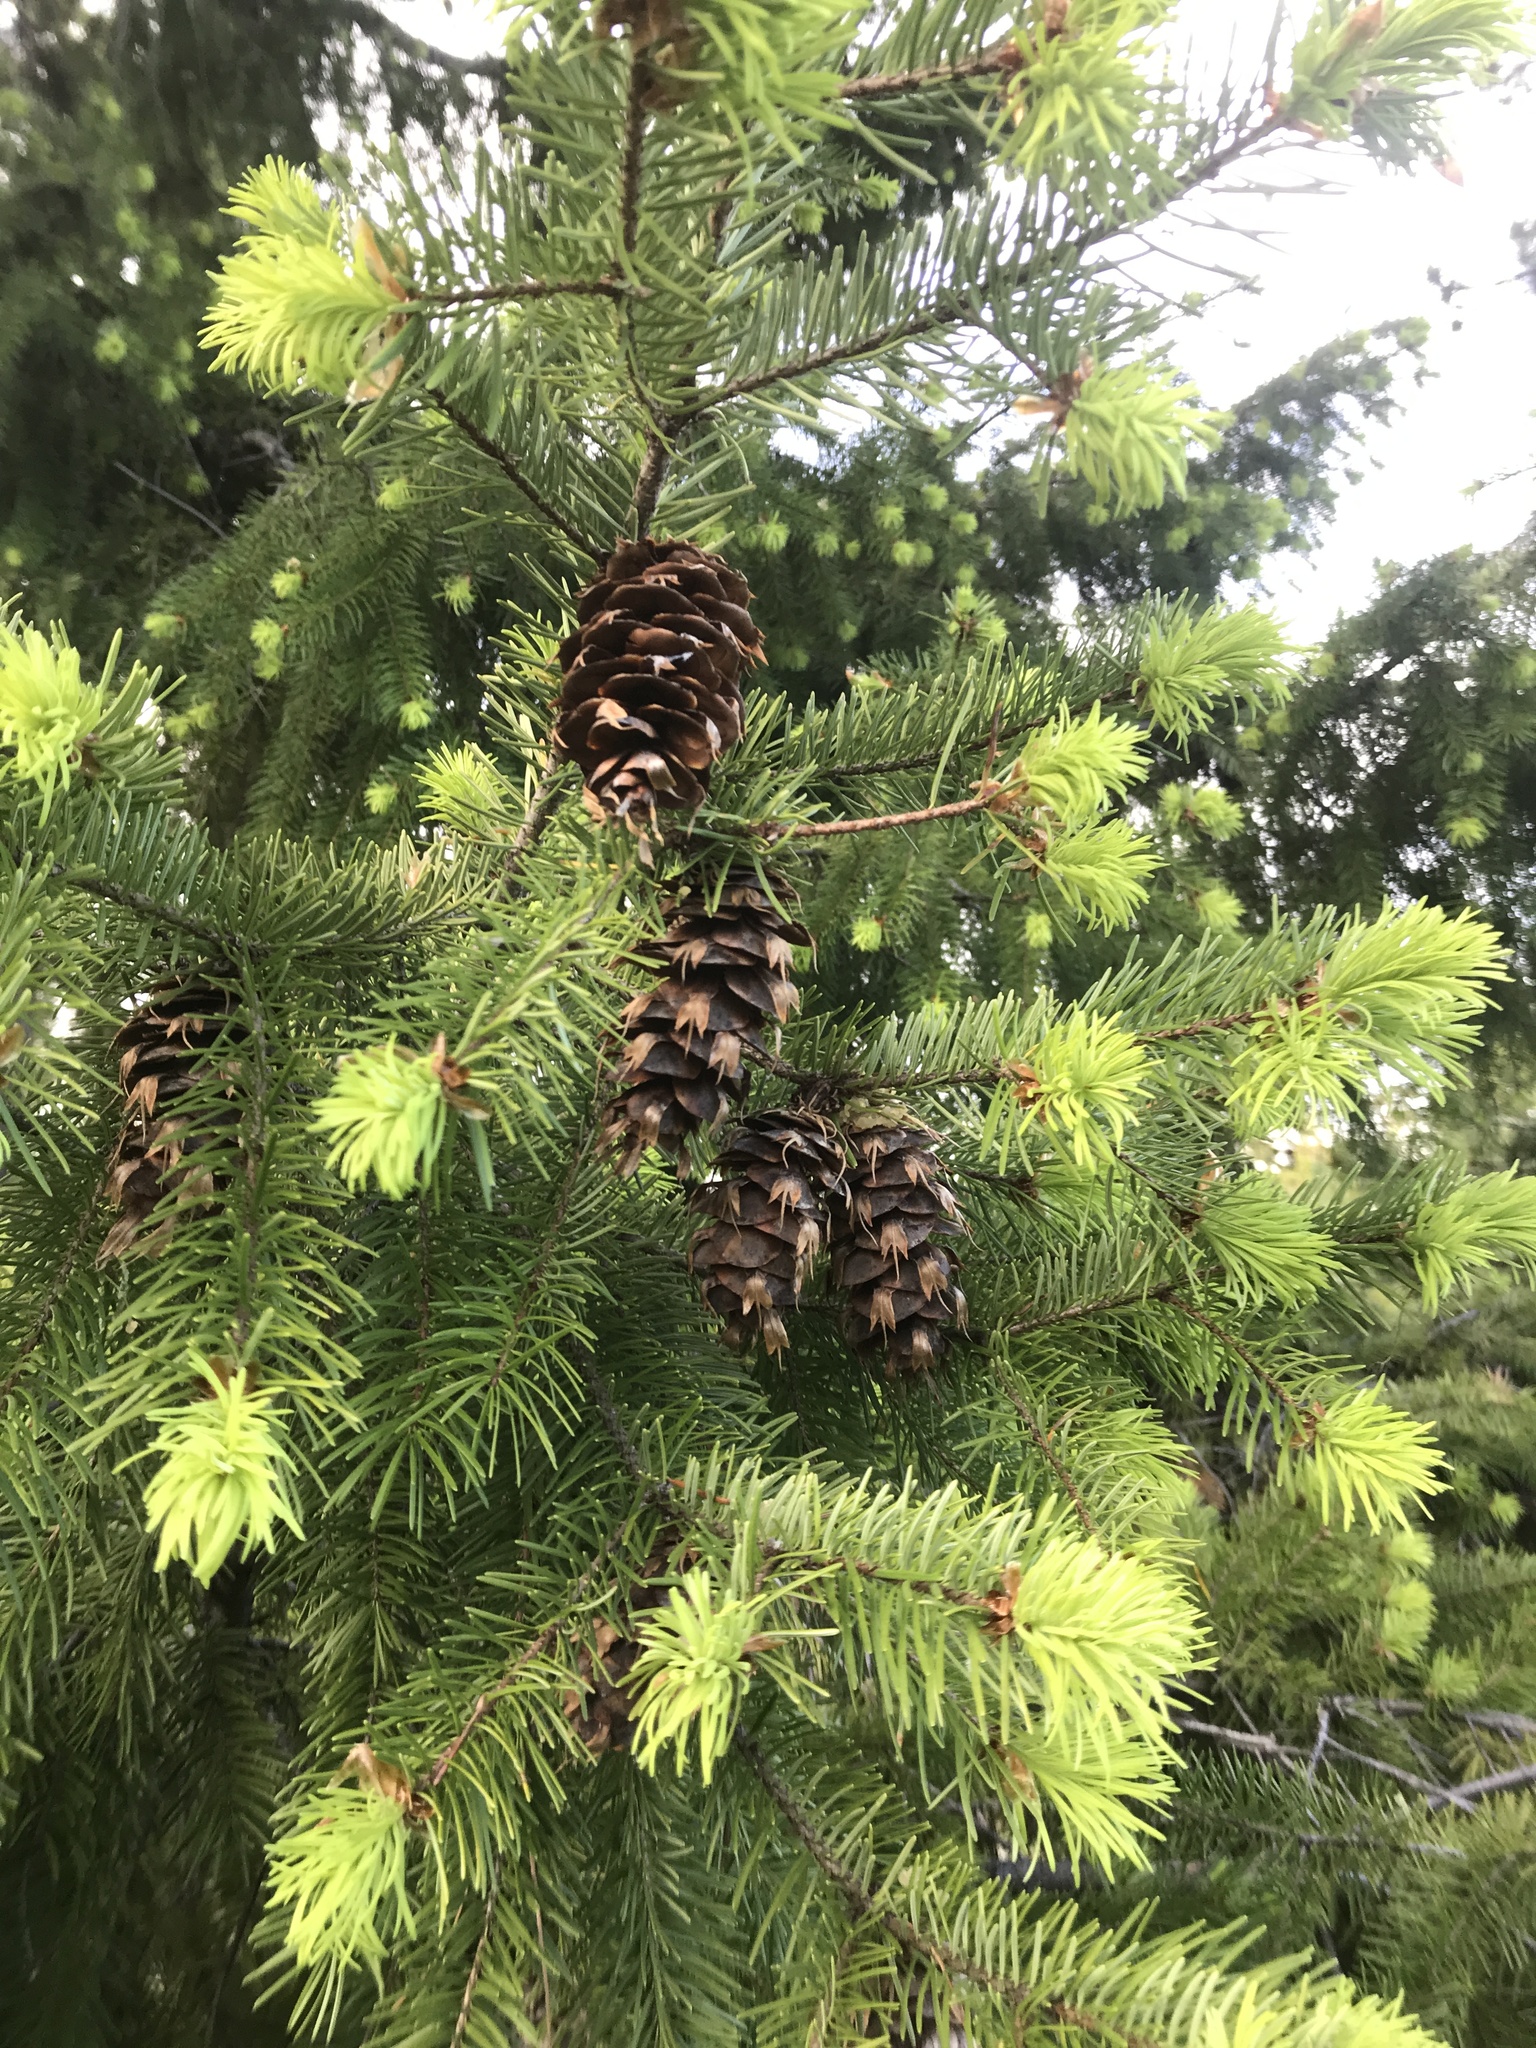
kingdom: Plantae
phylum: Tracheophyta
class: Pinopsida
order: Pinales
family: Pinaceae
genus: Pseudotsuga
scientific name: Pseudotsuga menziesii
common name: Douglas fir
